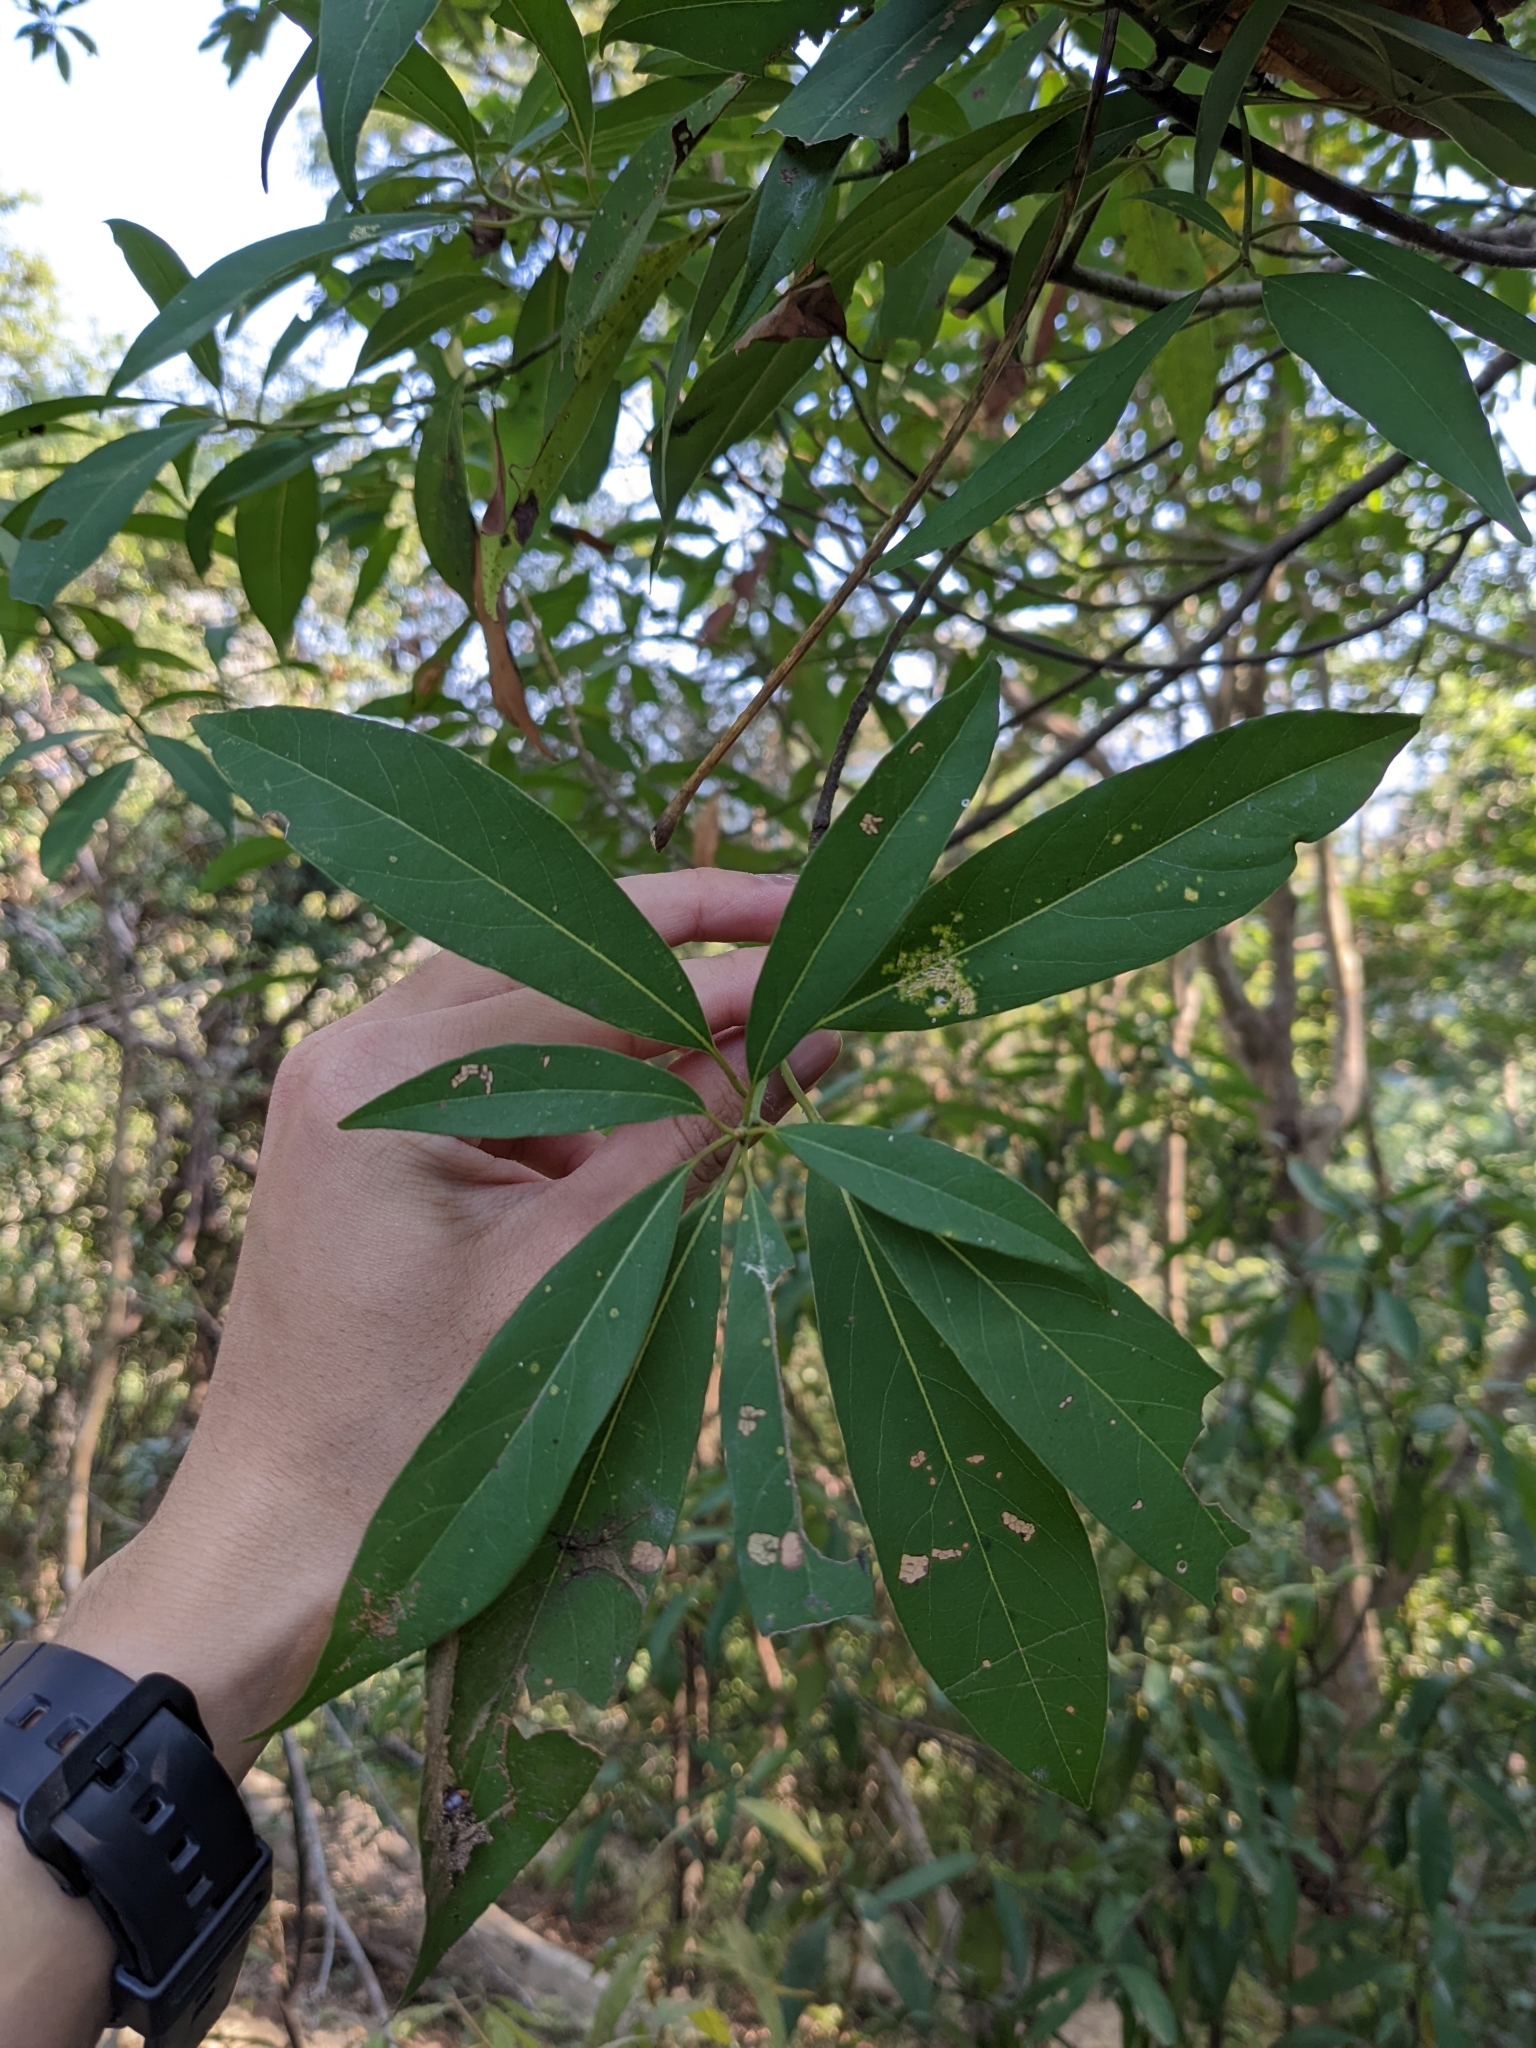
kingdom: Plantae
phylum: Tracheophyta
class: Magnoliopsida
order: Laurales
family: Lauraceae
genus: Machilus
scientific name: Machilus zuihoensis
